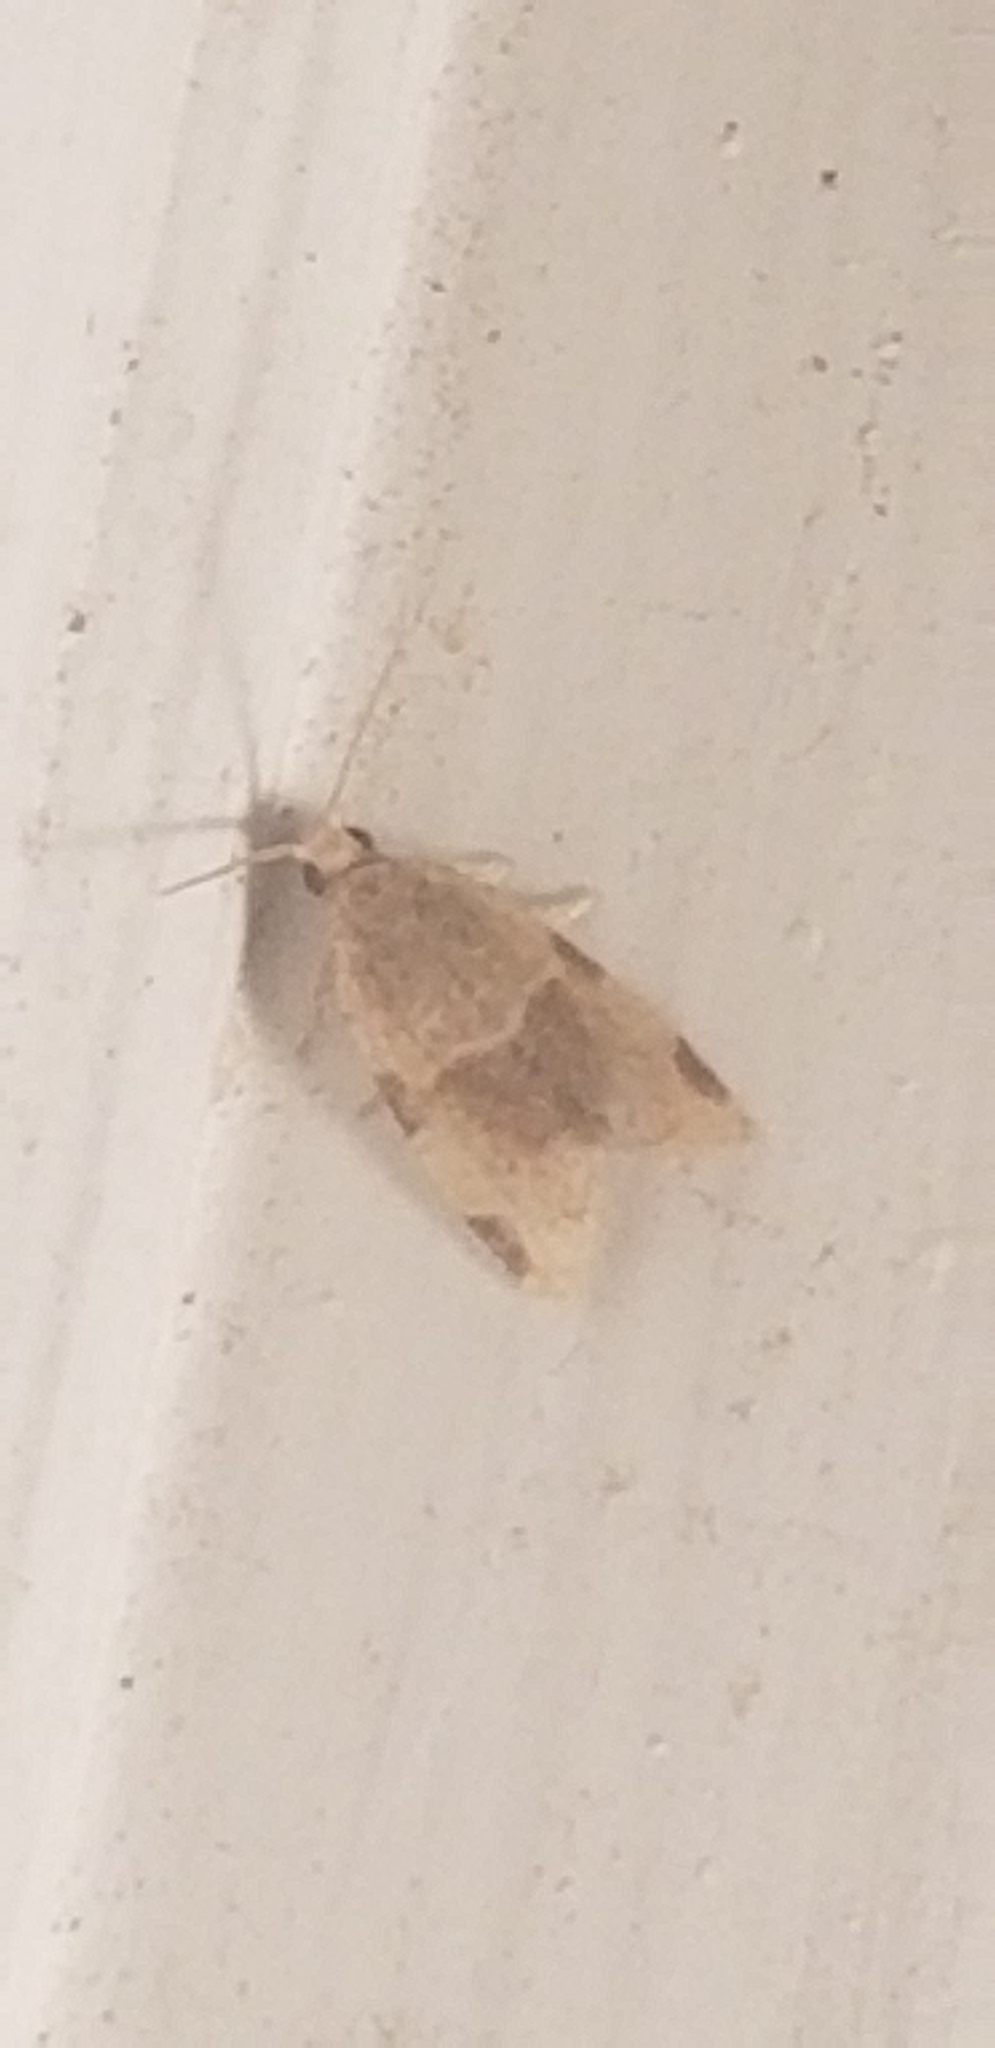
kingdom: Animalia
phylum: Arthropoda
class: Insecta
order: Lepidoptera
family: Tortricidae
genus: Clepsis
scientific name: Clepsis virescana
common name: Greenish apple moth
